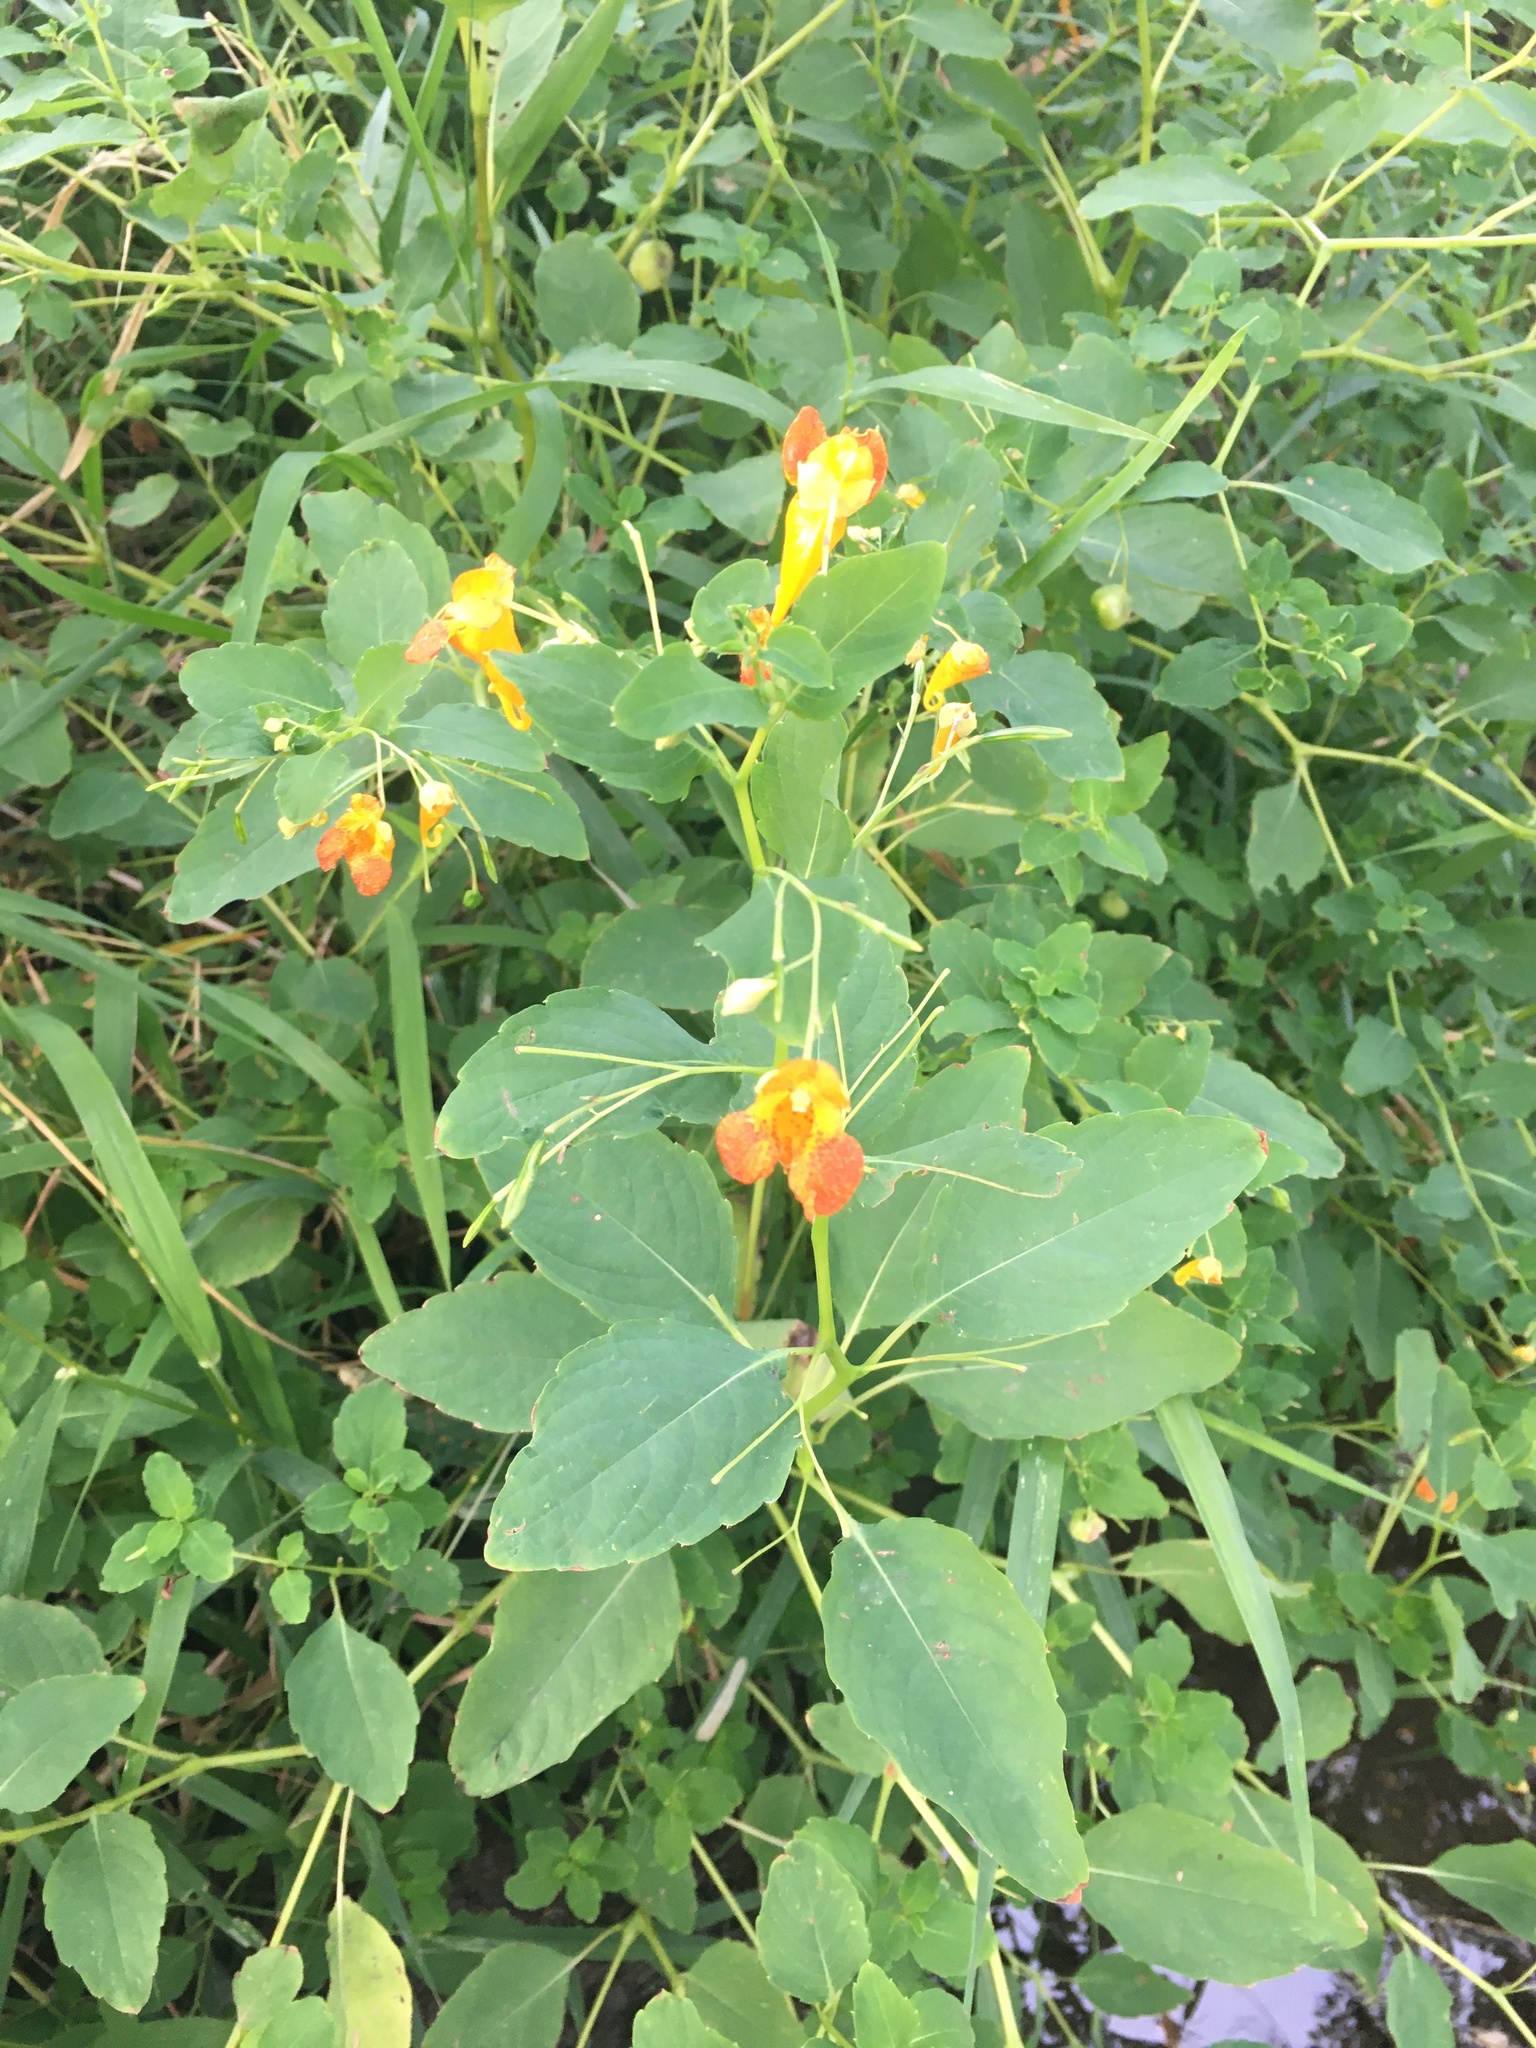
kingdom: Plantae
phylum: Tracheophyta
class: Magnoliopsida
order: Ericales
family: Balsaminaceae
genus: Impatiens
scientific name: Impatiens capensis
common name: Orange balsam
